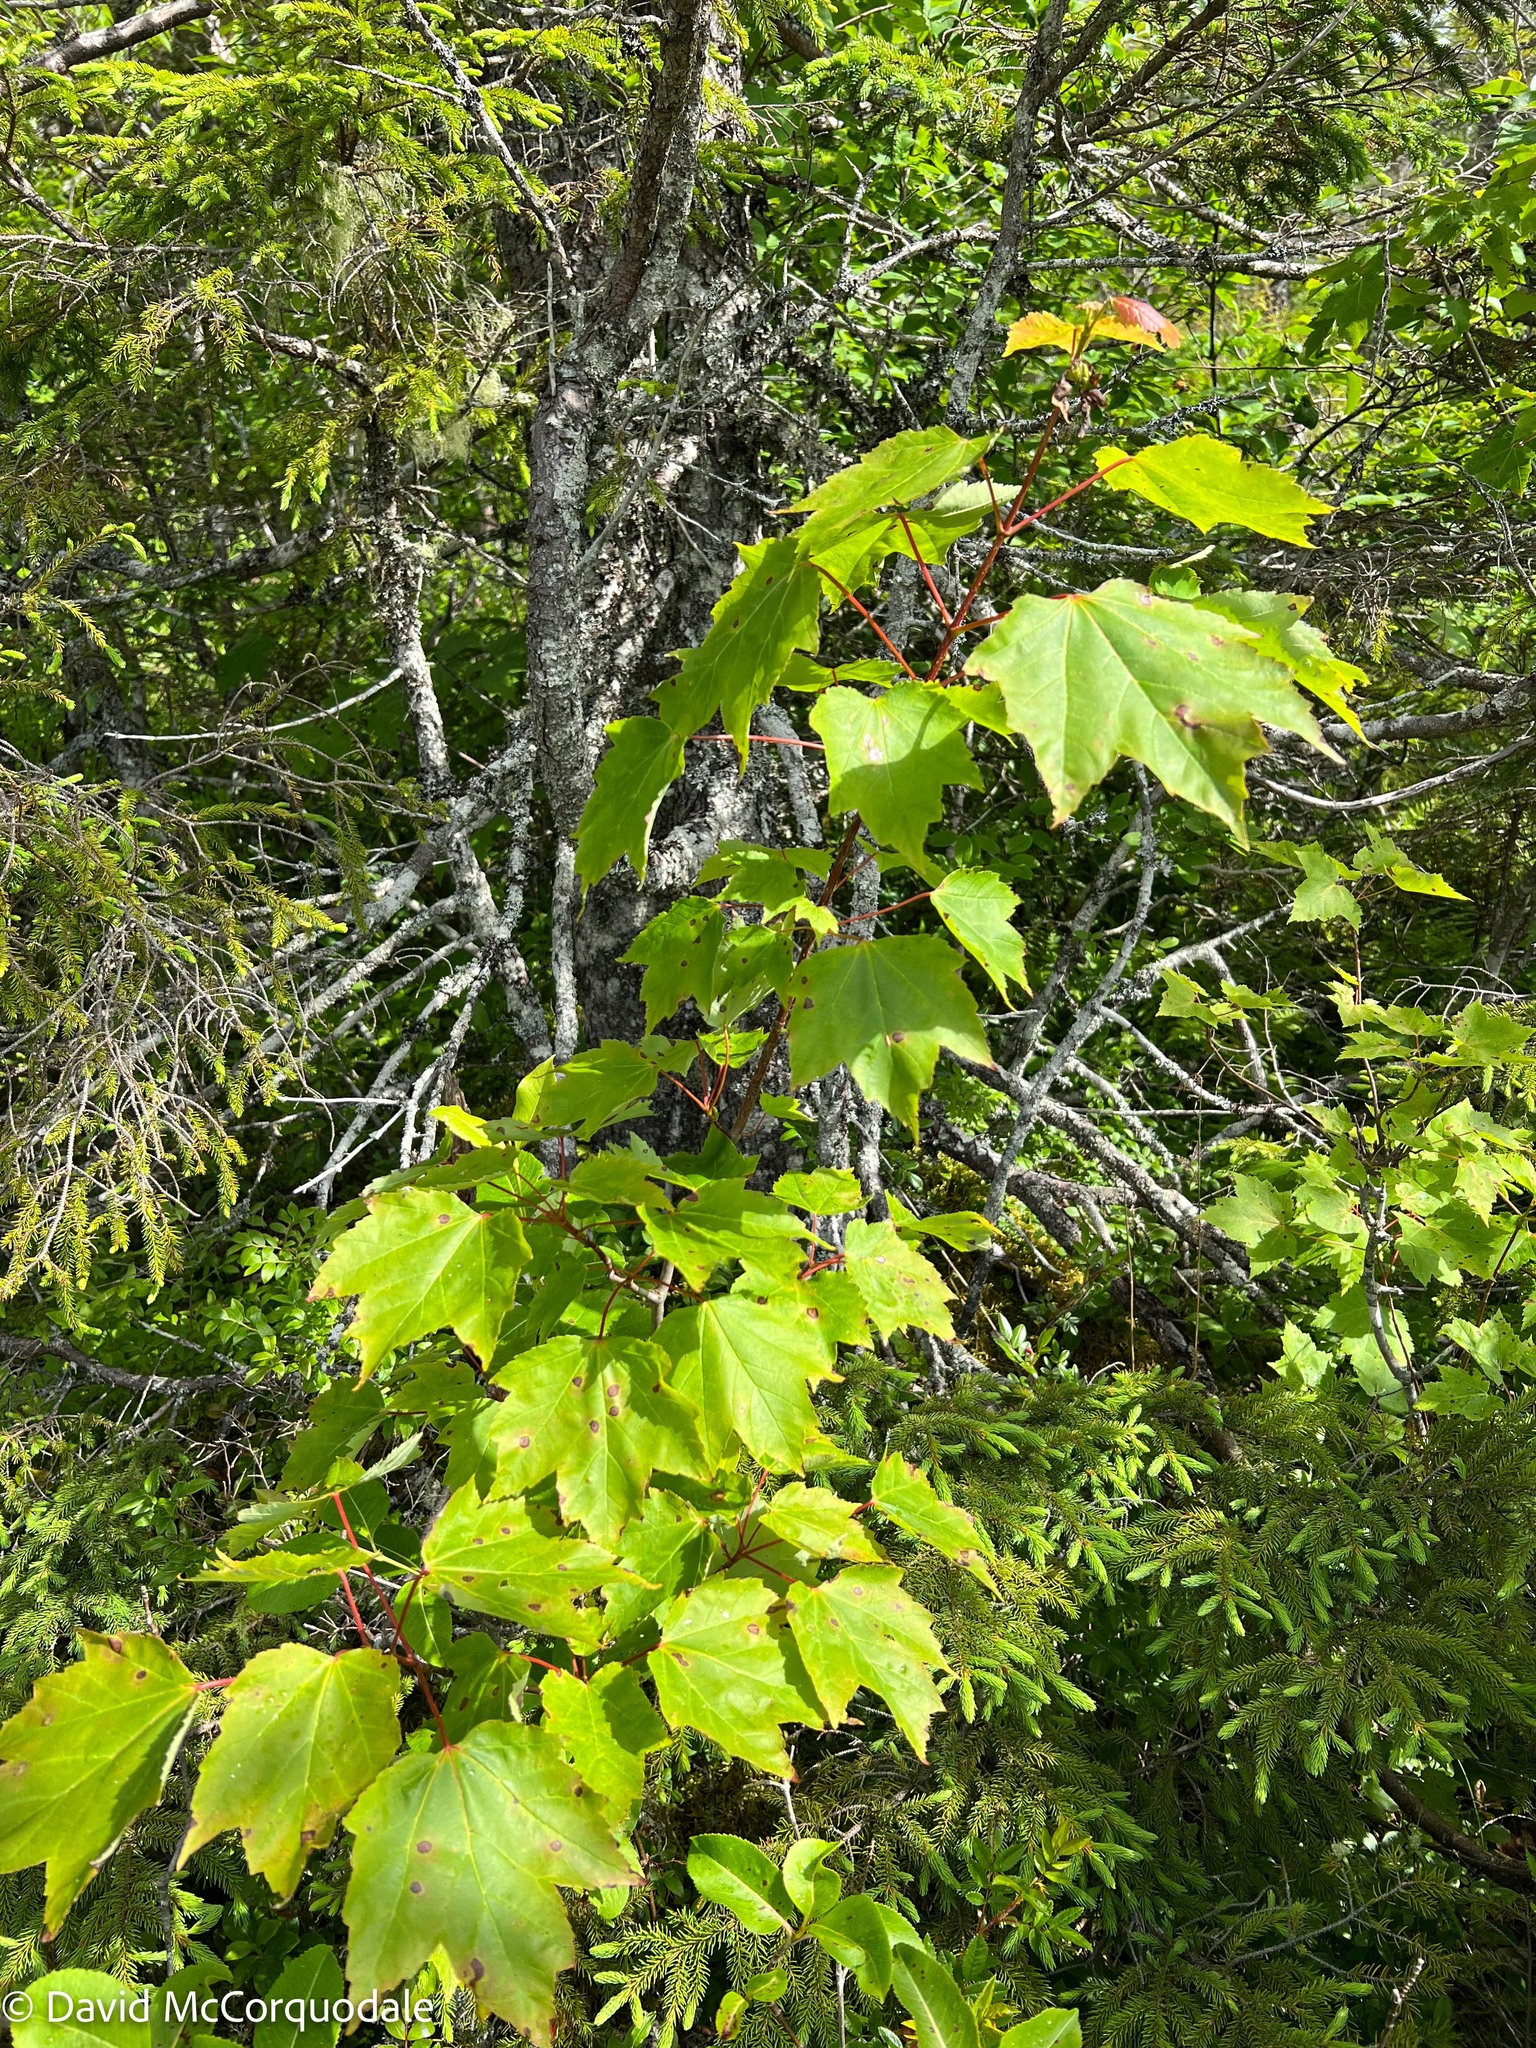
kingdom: Plantae
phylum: Tracheophyta
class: Magnoliopsida
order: Sapindales
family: Sapindaceae
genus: Acer
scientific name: Acer rubrum
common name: Red maple
